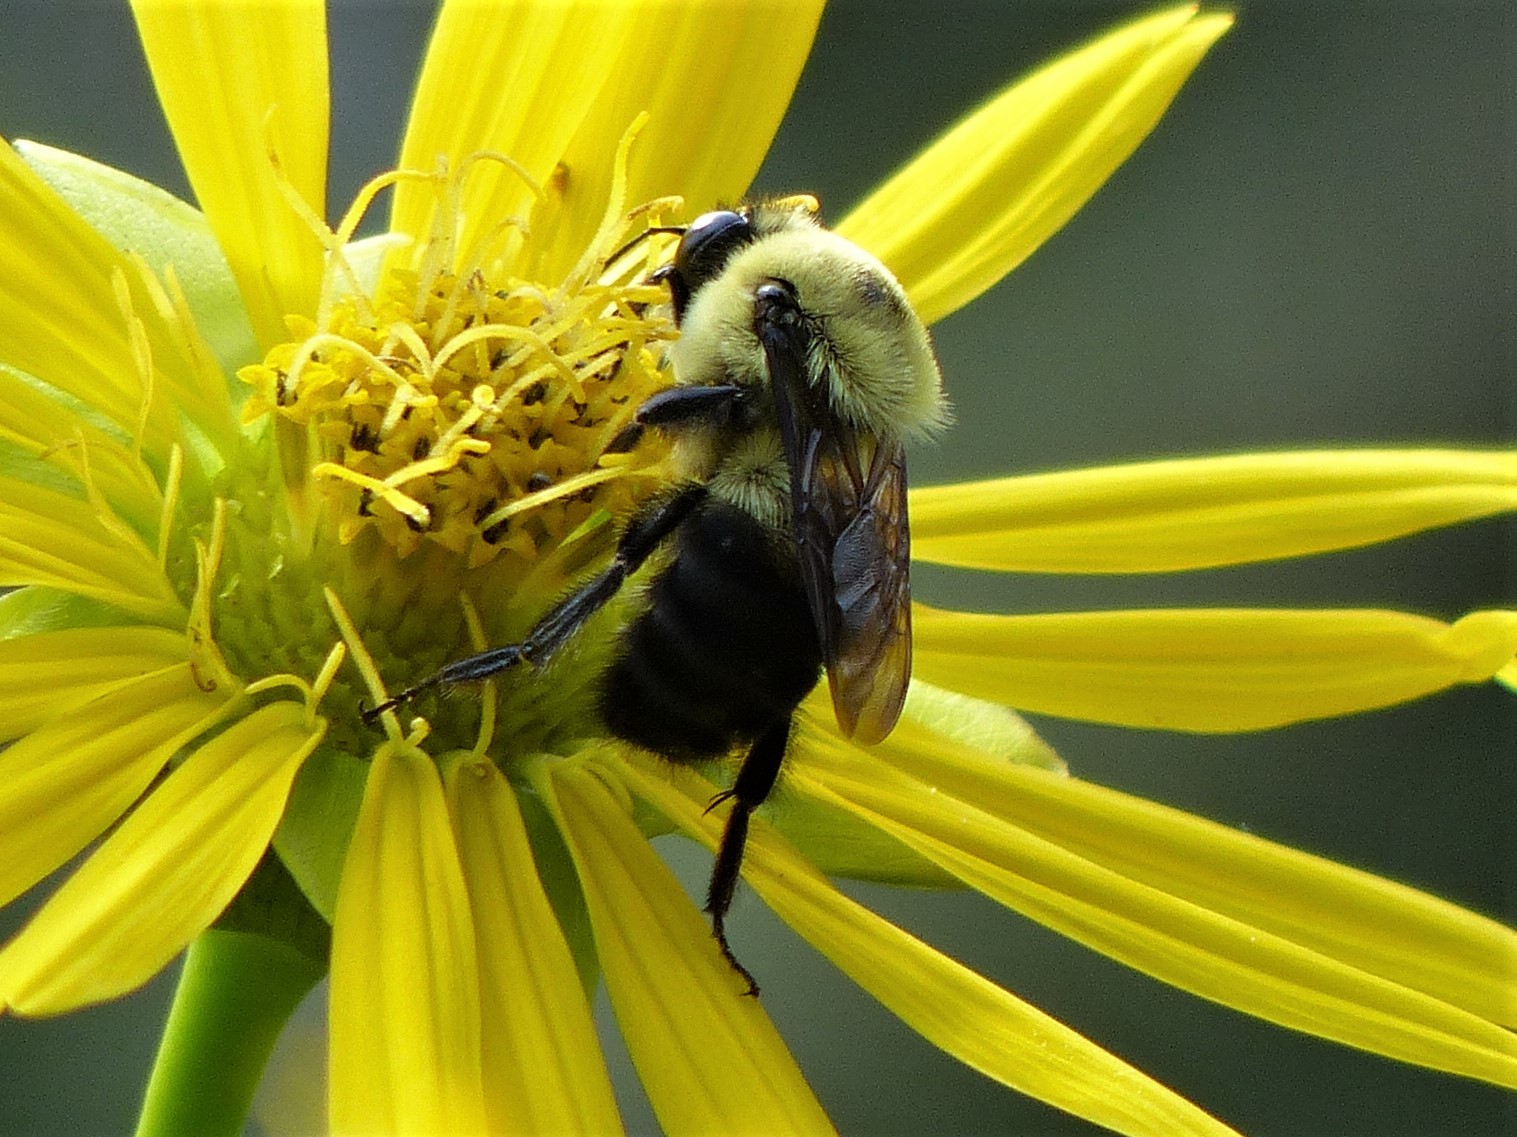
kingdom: Animalia
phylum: Arthropoda
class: Insecta
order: Hymenoptera
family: Apidae
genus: Bombus
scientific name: Bombus griseocollis
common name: Brown-belted bumble bee
